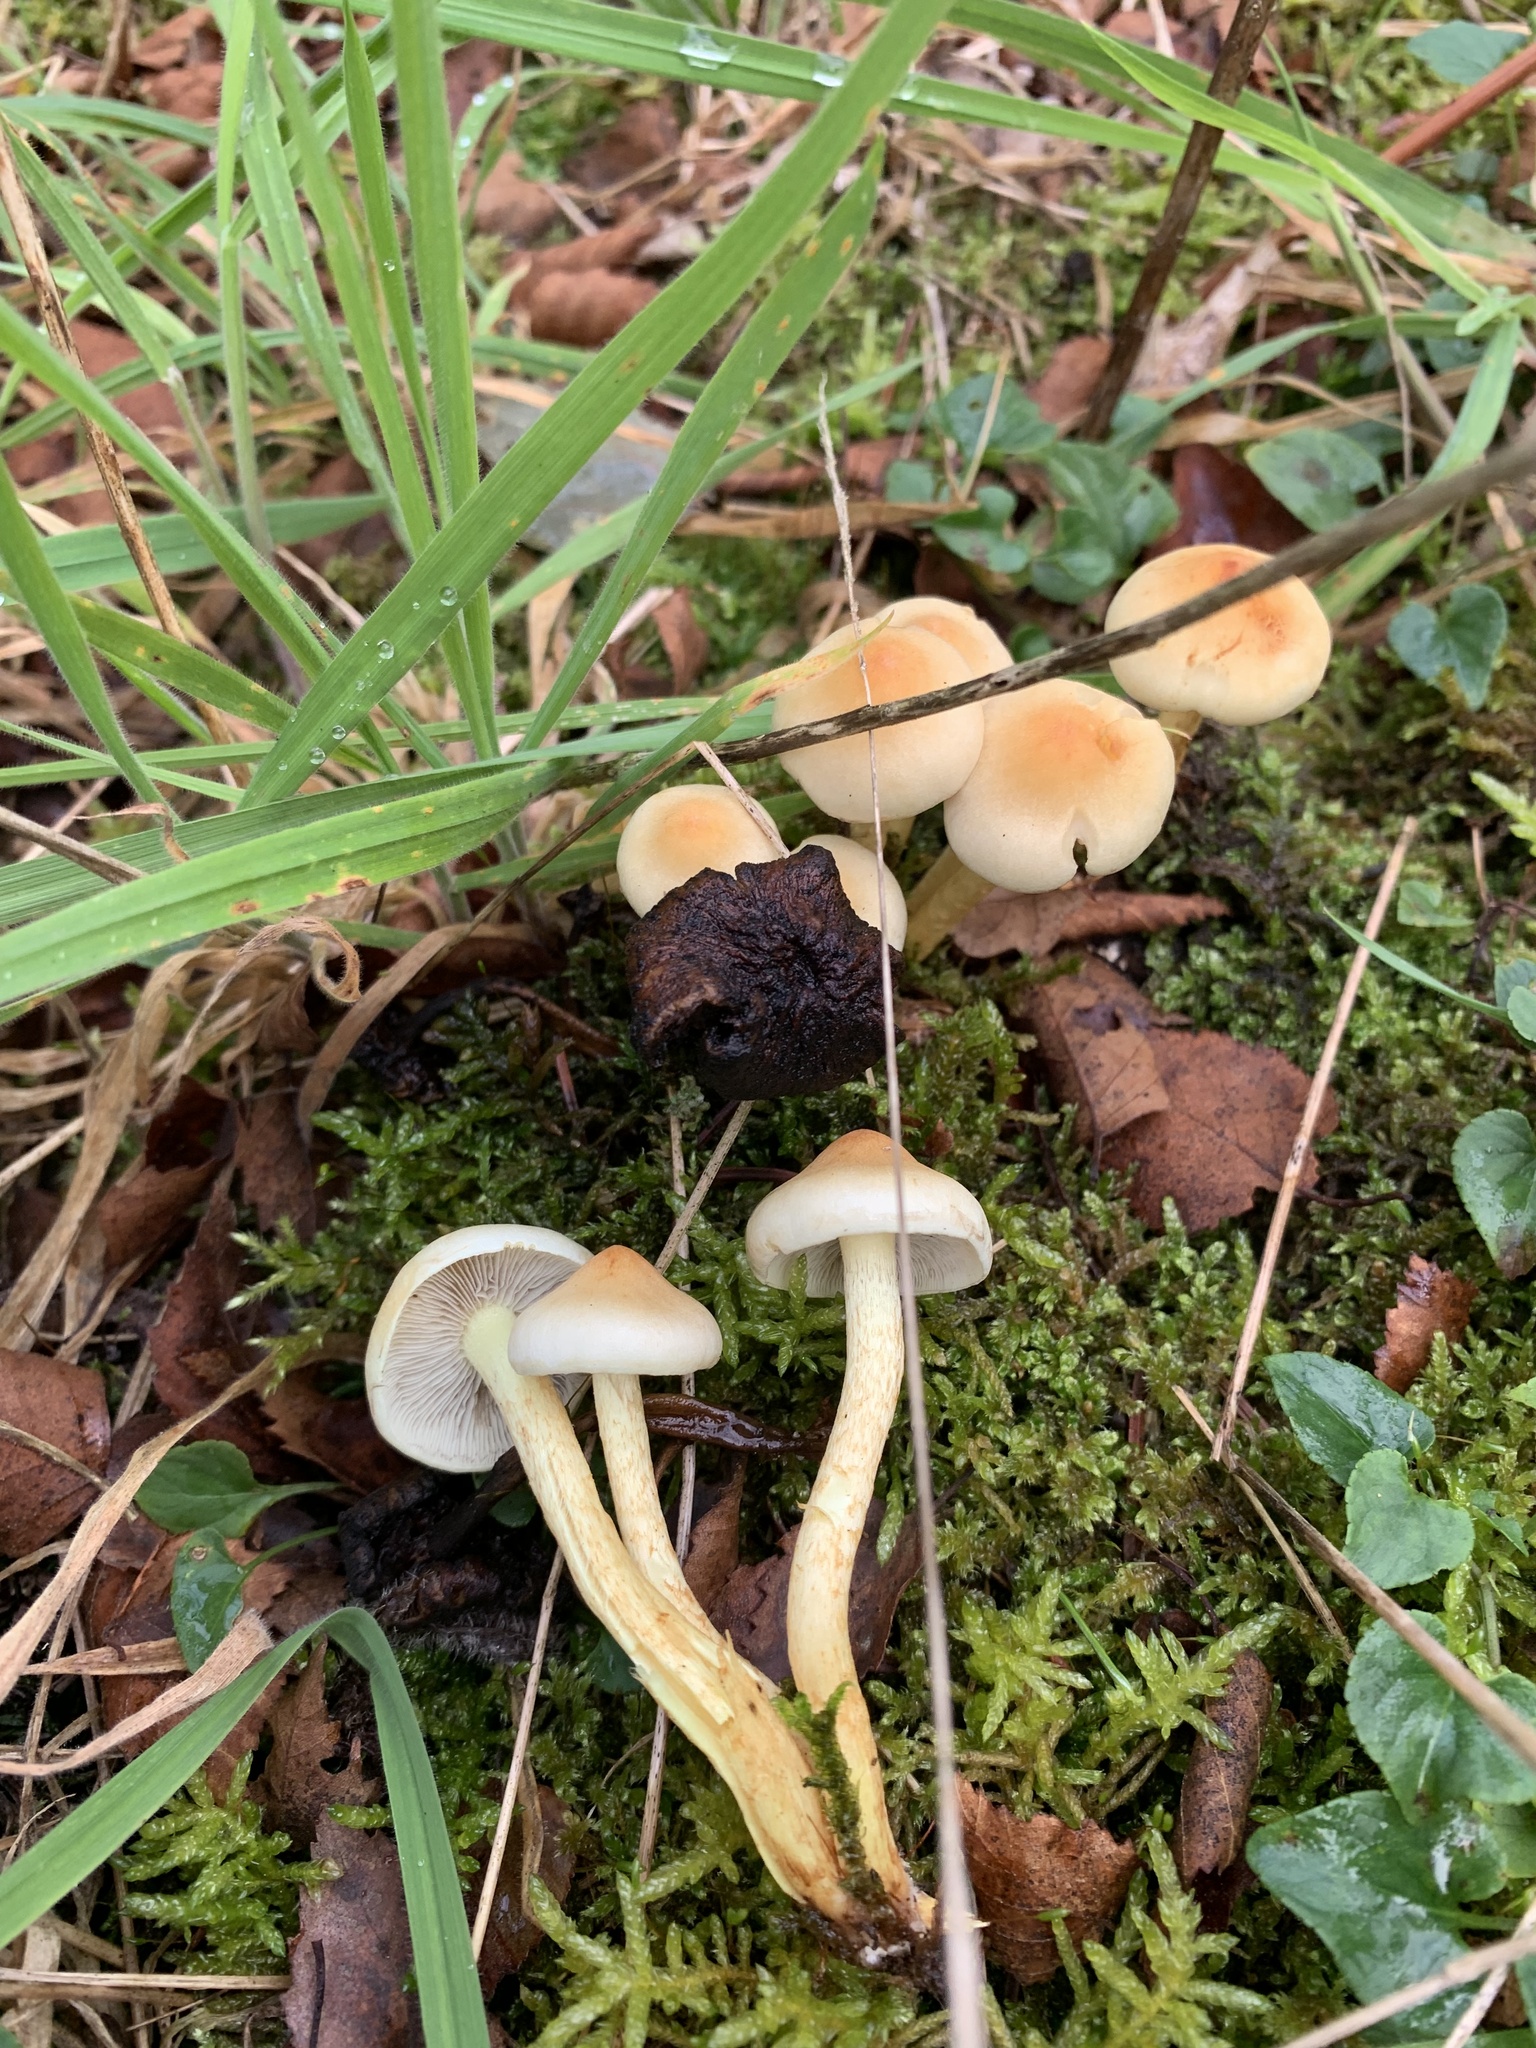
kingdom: Fungi
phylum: Basidiomycota
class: Agaricomycetes
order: Agaricales
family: Strophariaceae
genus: Hypholoma
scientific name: Hypholoma capnoides
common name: Conifer tuft
